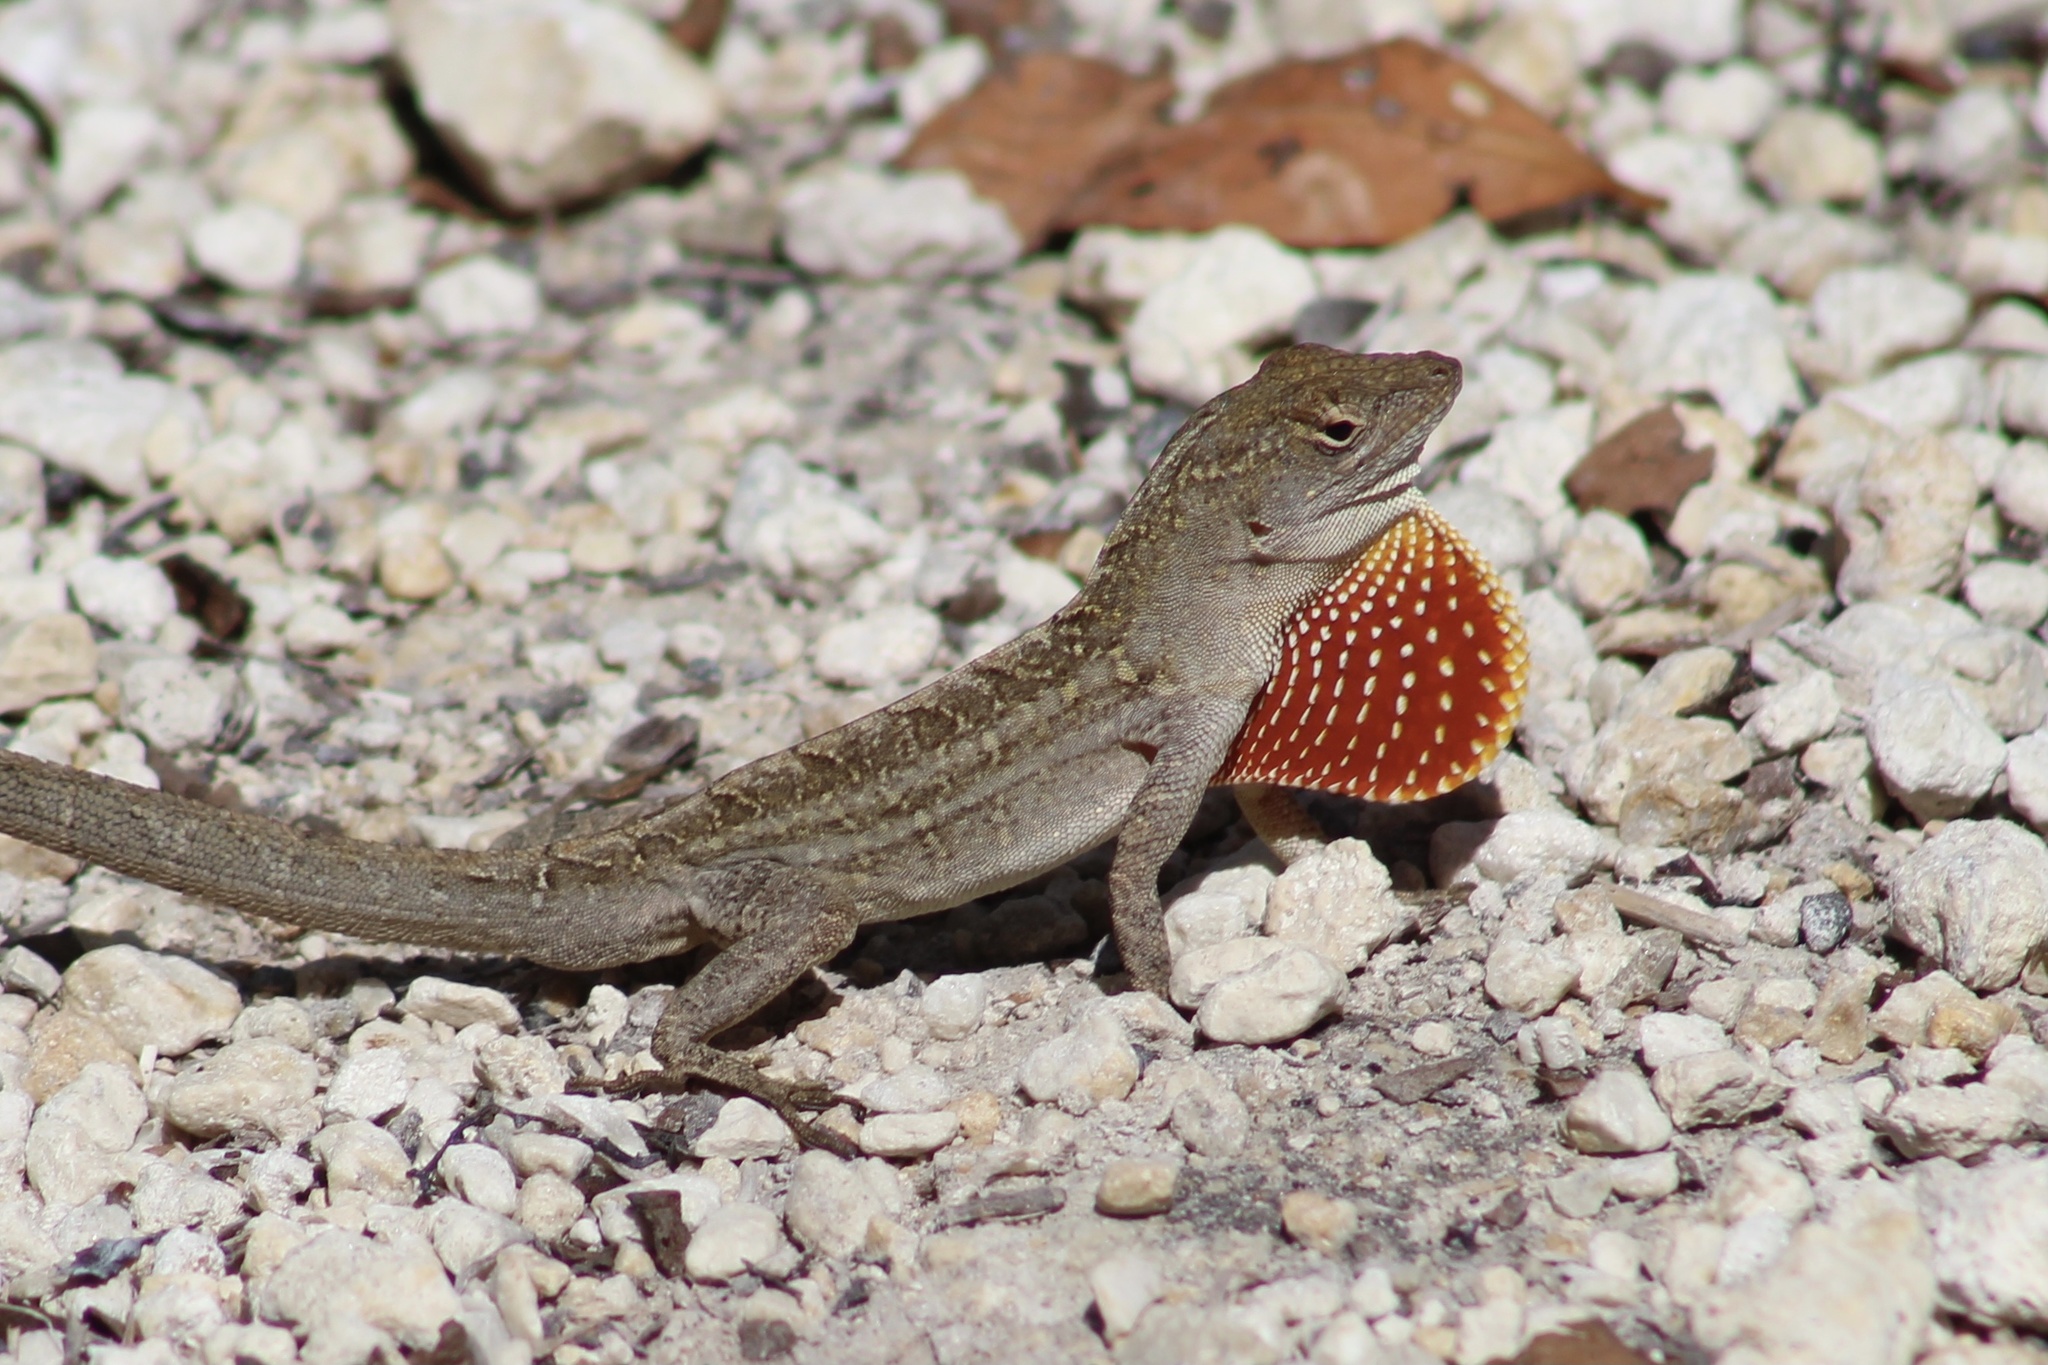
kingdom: Animalia
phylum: Chordata
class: Squamata
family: Dactyloidae
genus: Anolis
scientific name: Anolis sagrei
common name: Brown anole
